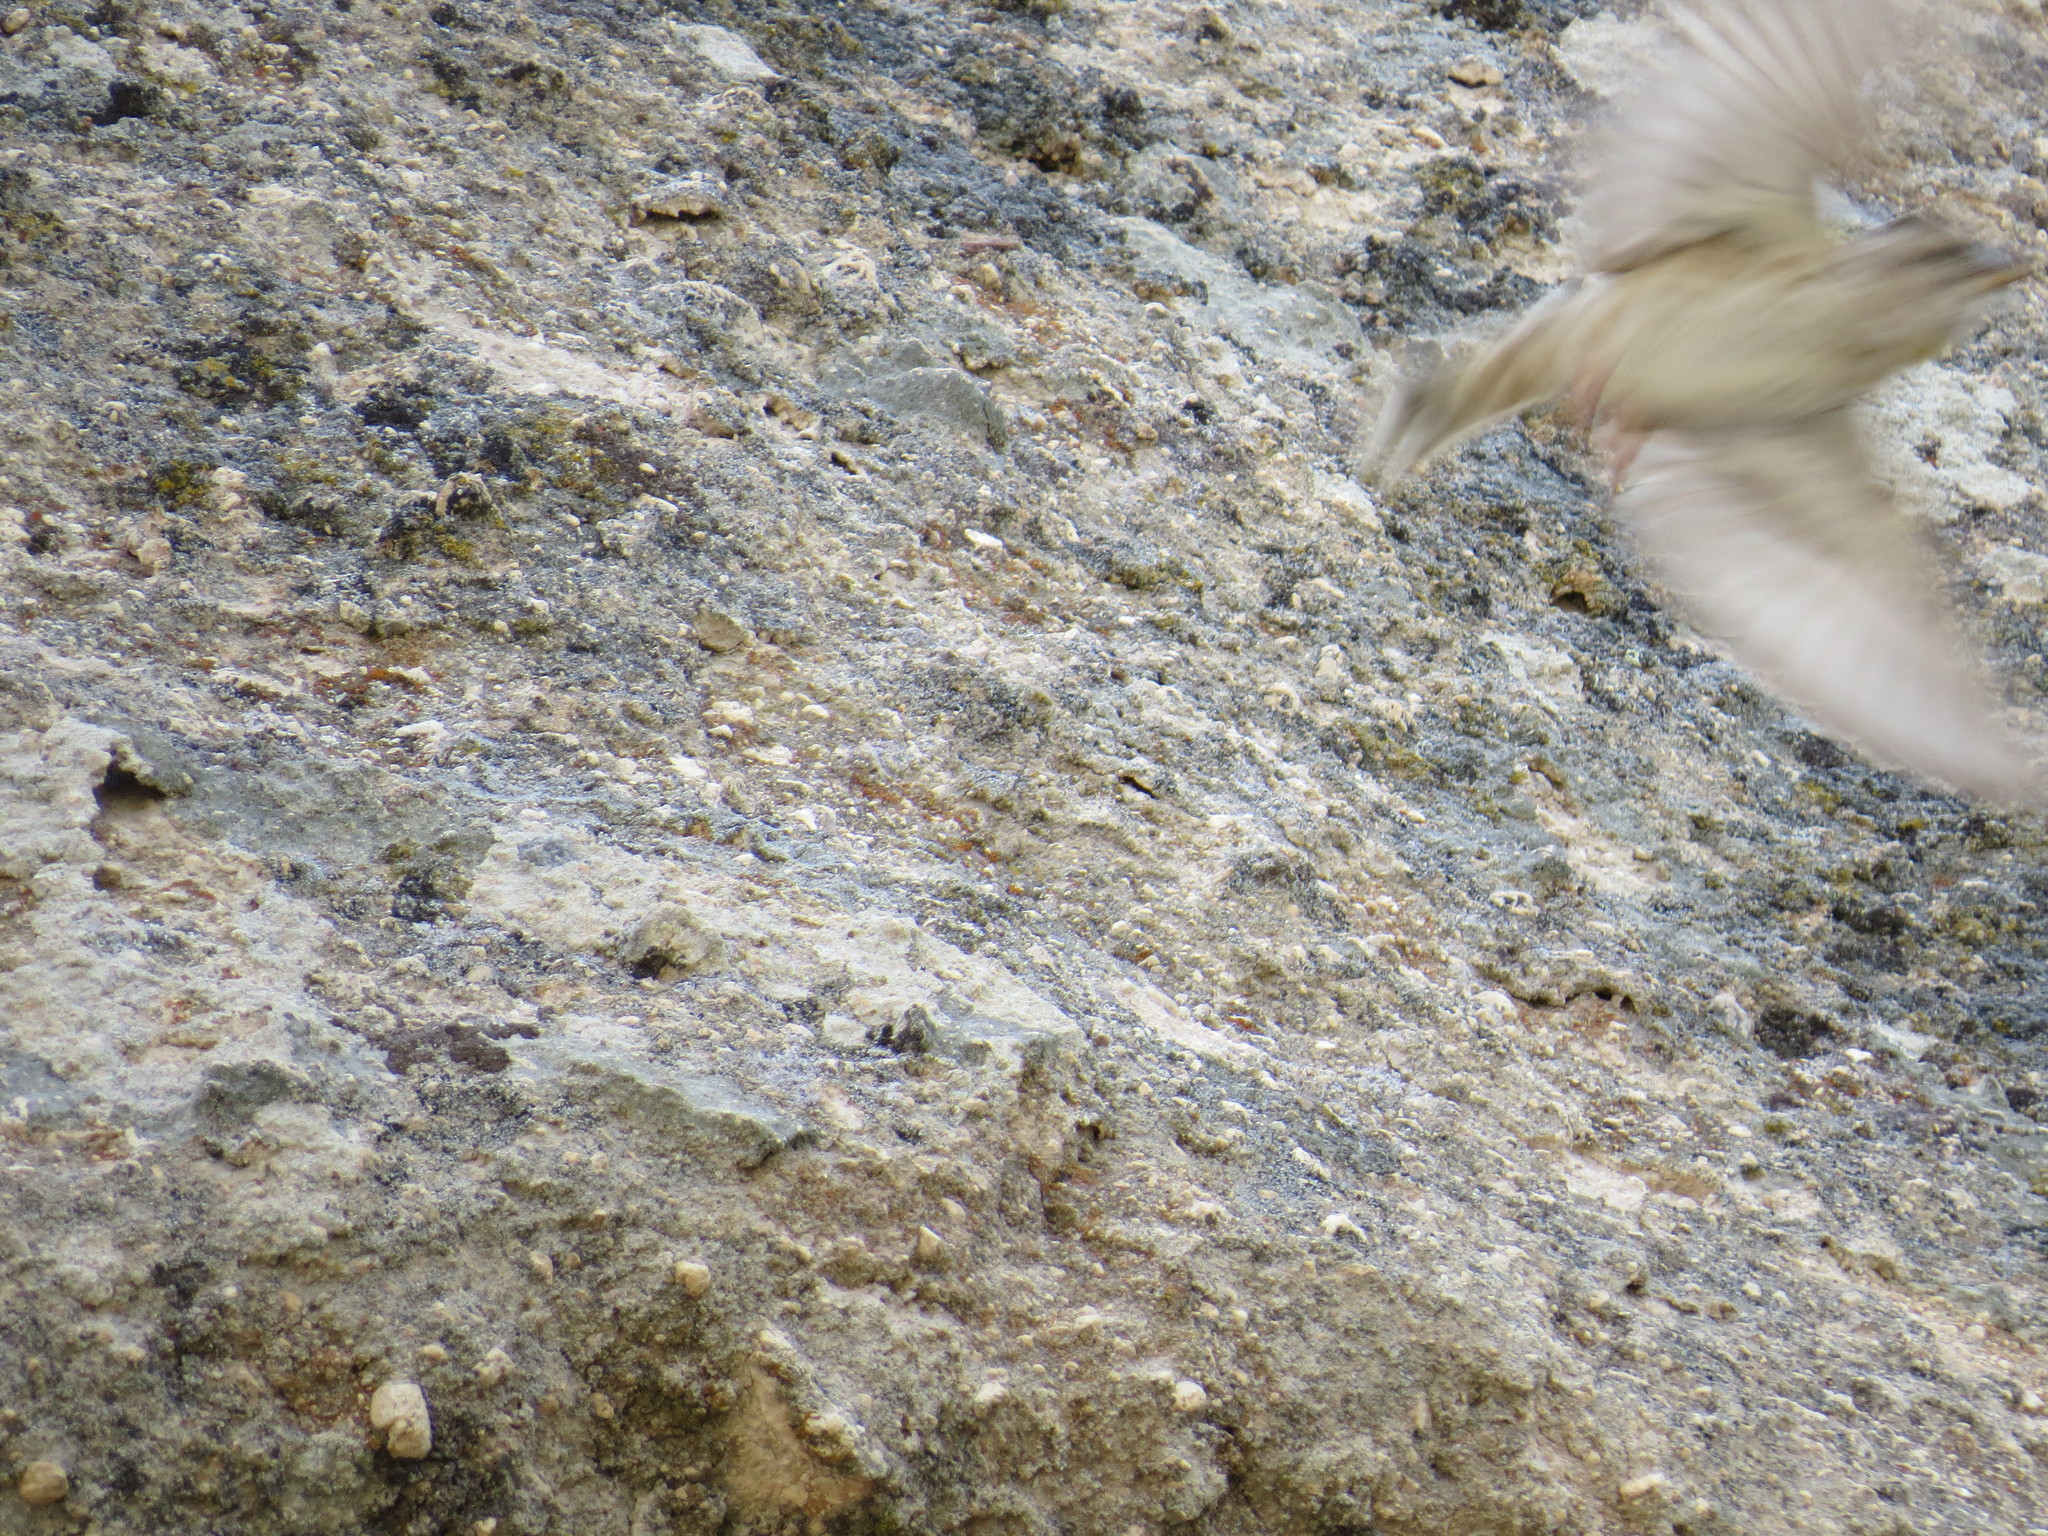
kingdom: Animalia
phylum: Chordata
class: Aves
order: Passeriformes
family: Passeridae
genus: Petronia
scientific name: Petronia petronia
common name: Rock sparrow
